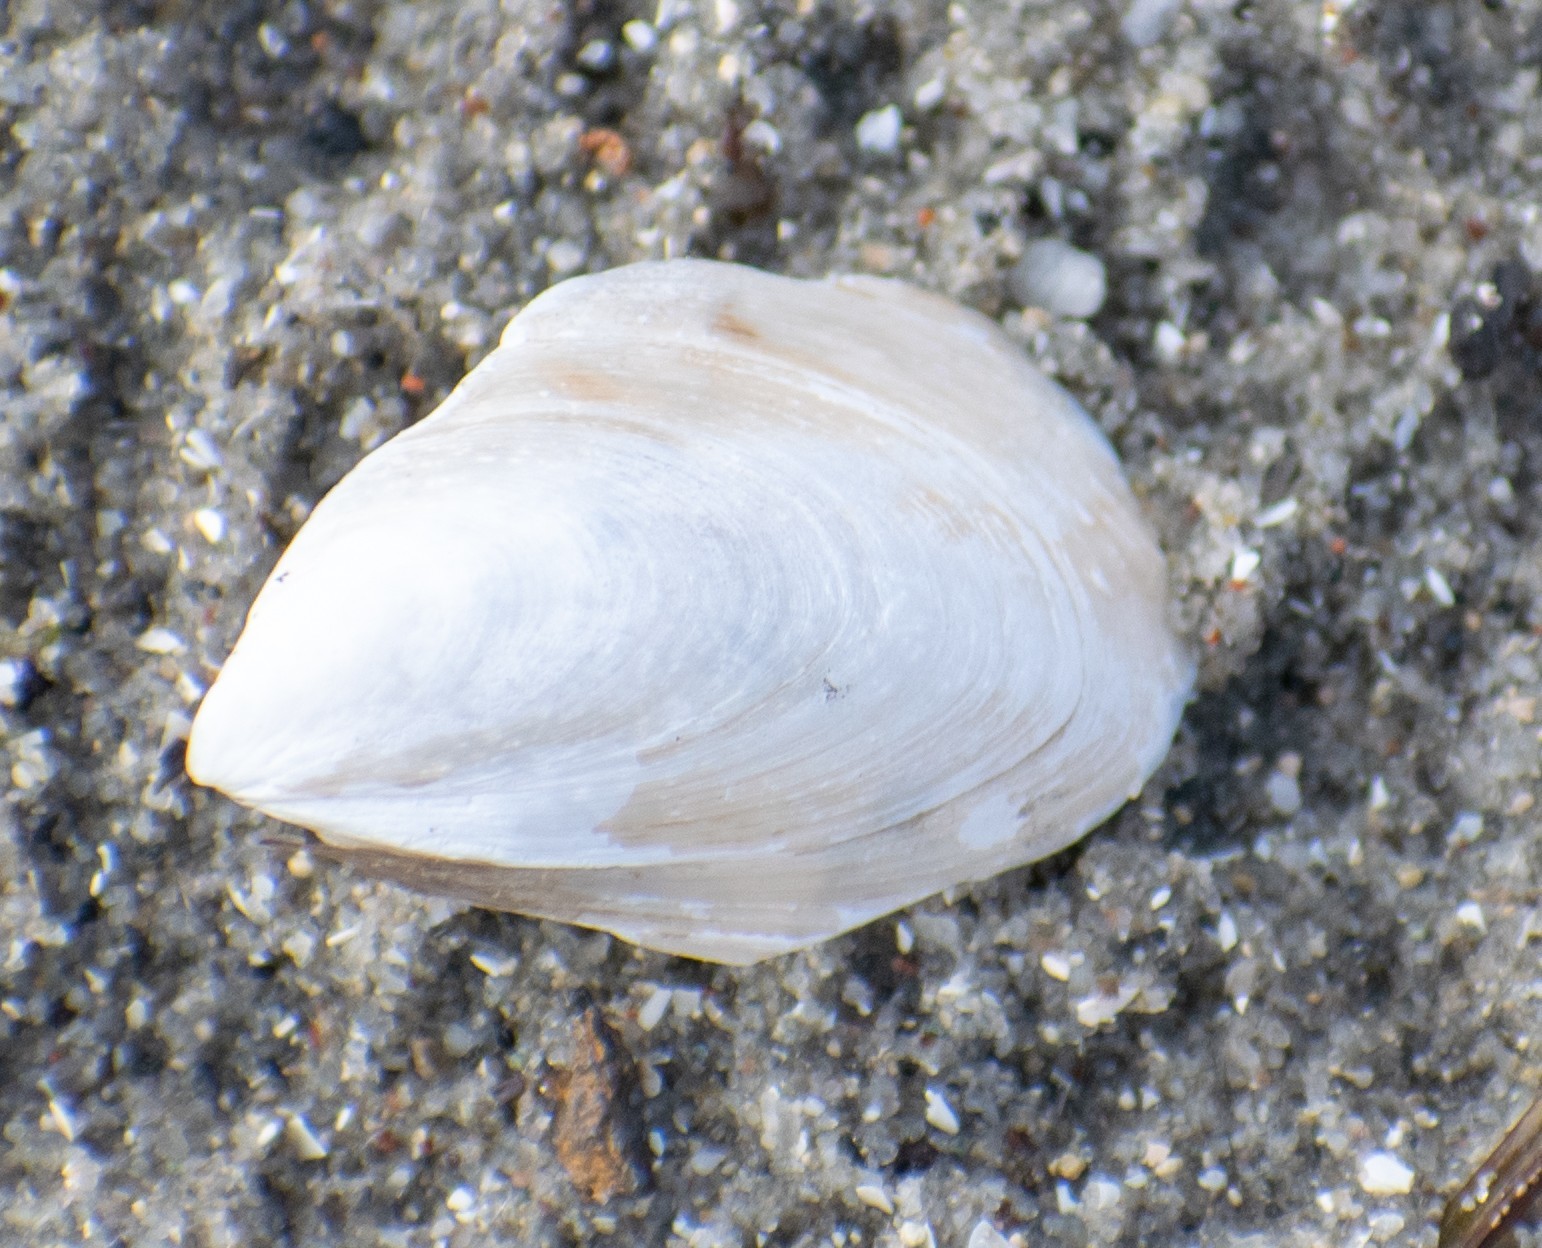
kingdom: Animalia
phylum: Mollusca
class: Bivalvia
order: Myida
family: Dreissenidae
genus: Dreissena
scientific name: Dreissena bugensis
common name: Quagga mussel
